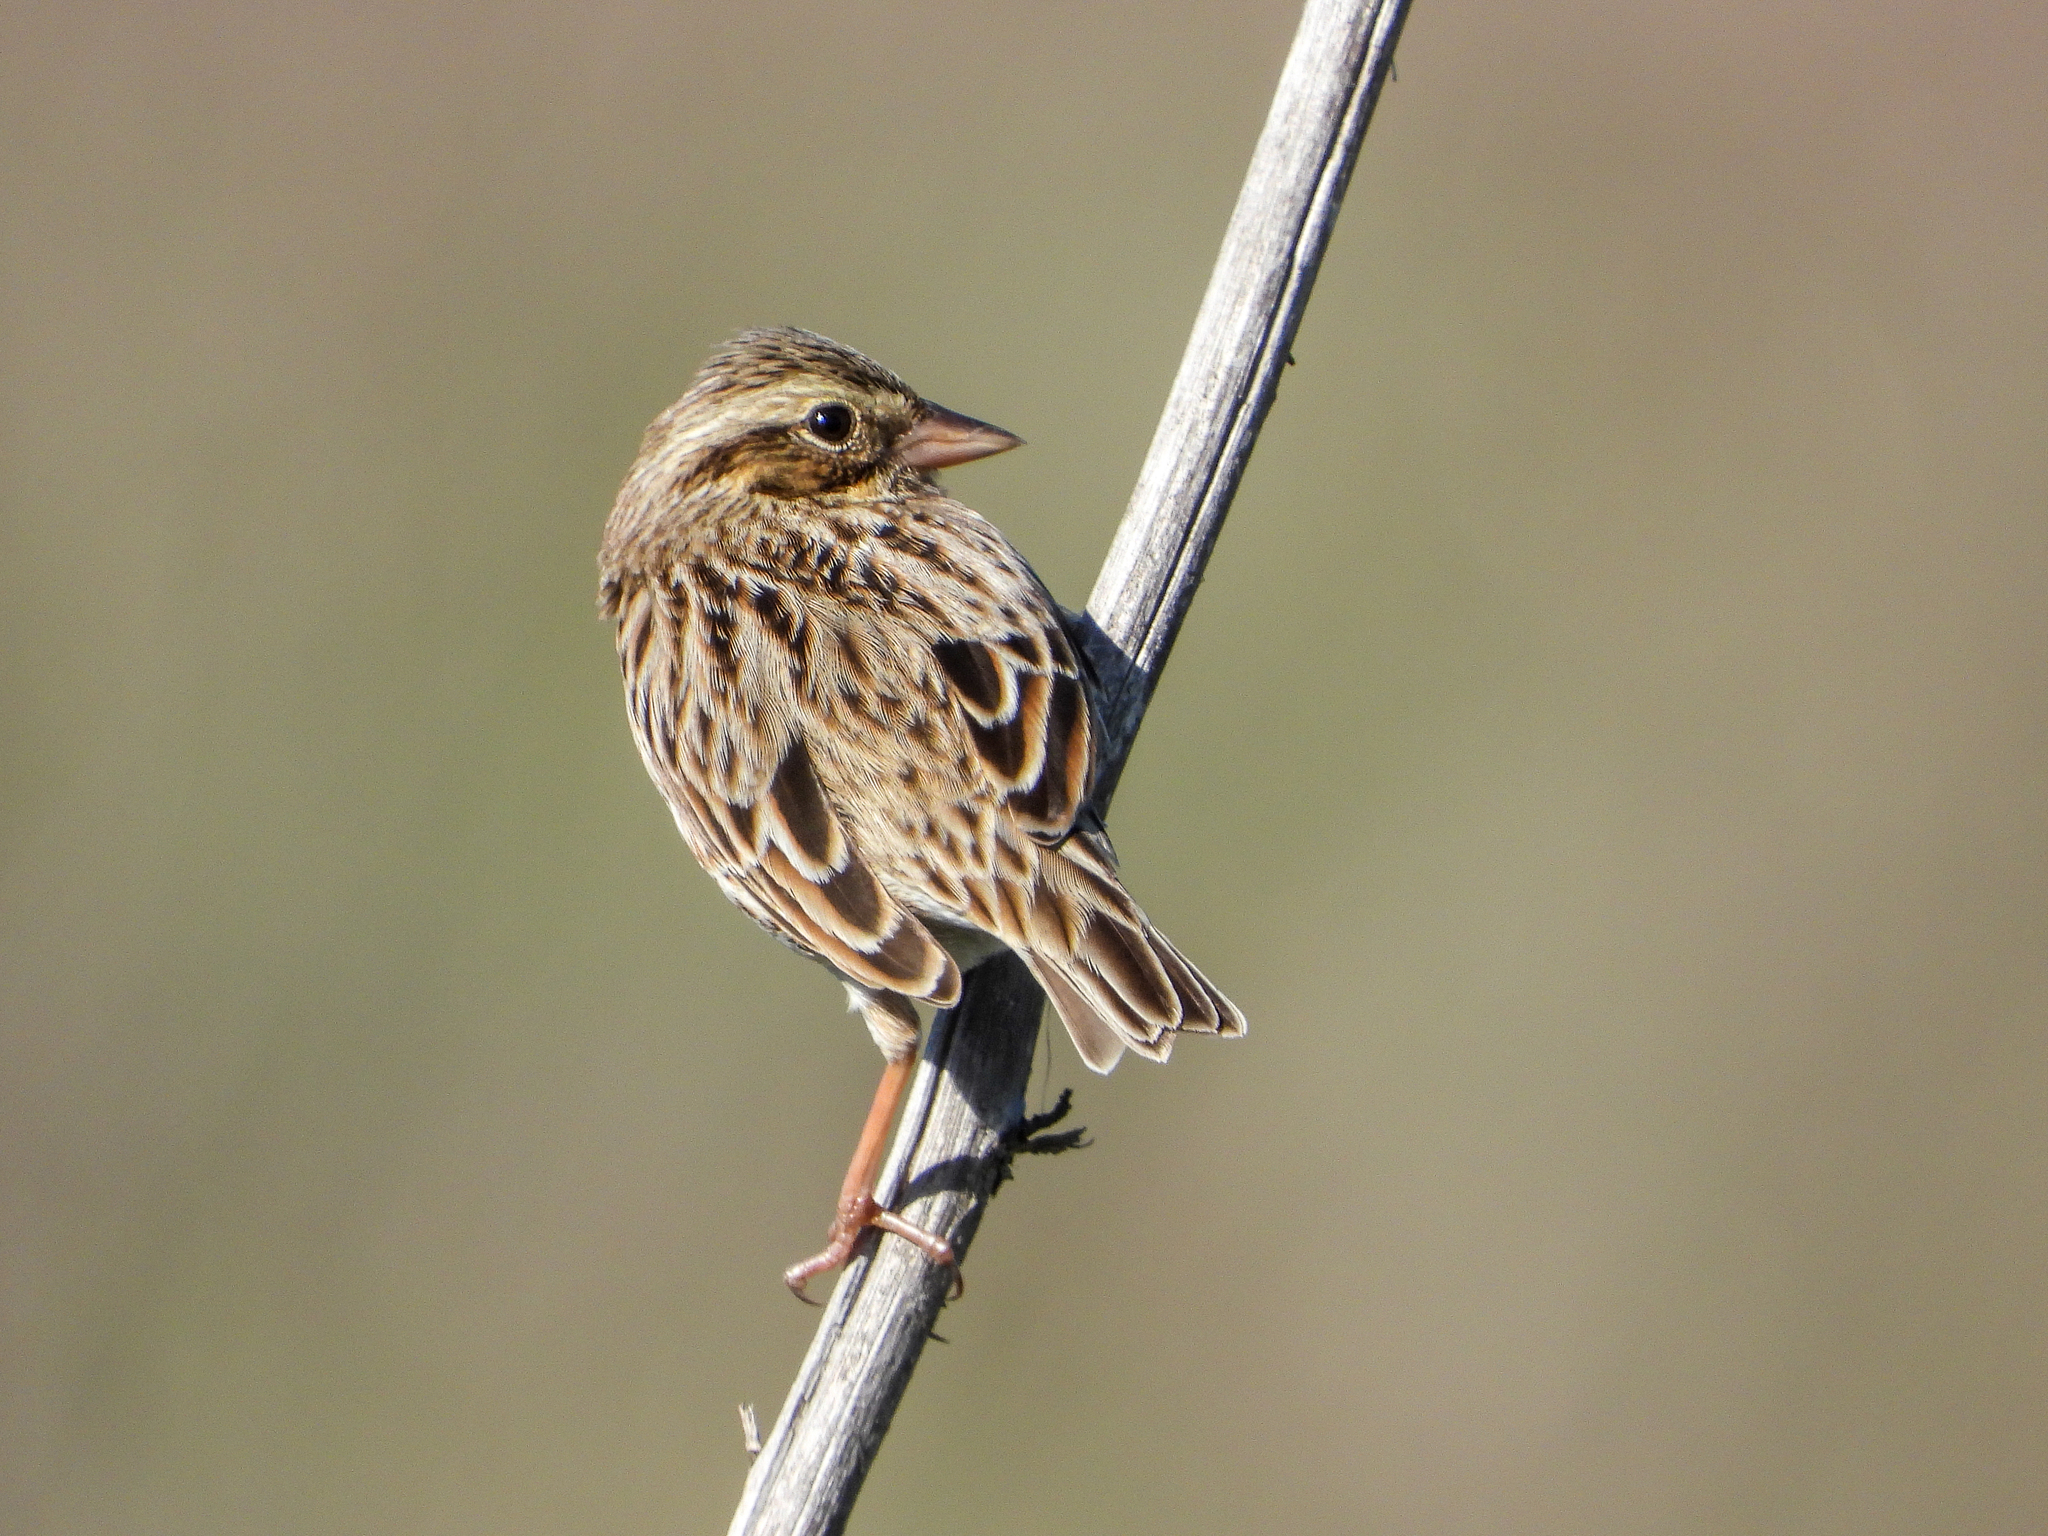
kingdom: Animalia
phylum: Chordata
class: Aves
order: Passeriformes
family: Passerellidae
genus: Passerculus
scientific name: Passerculus sandwichensis
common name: Savannah sparrow
